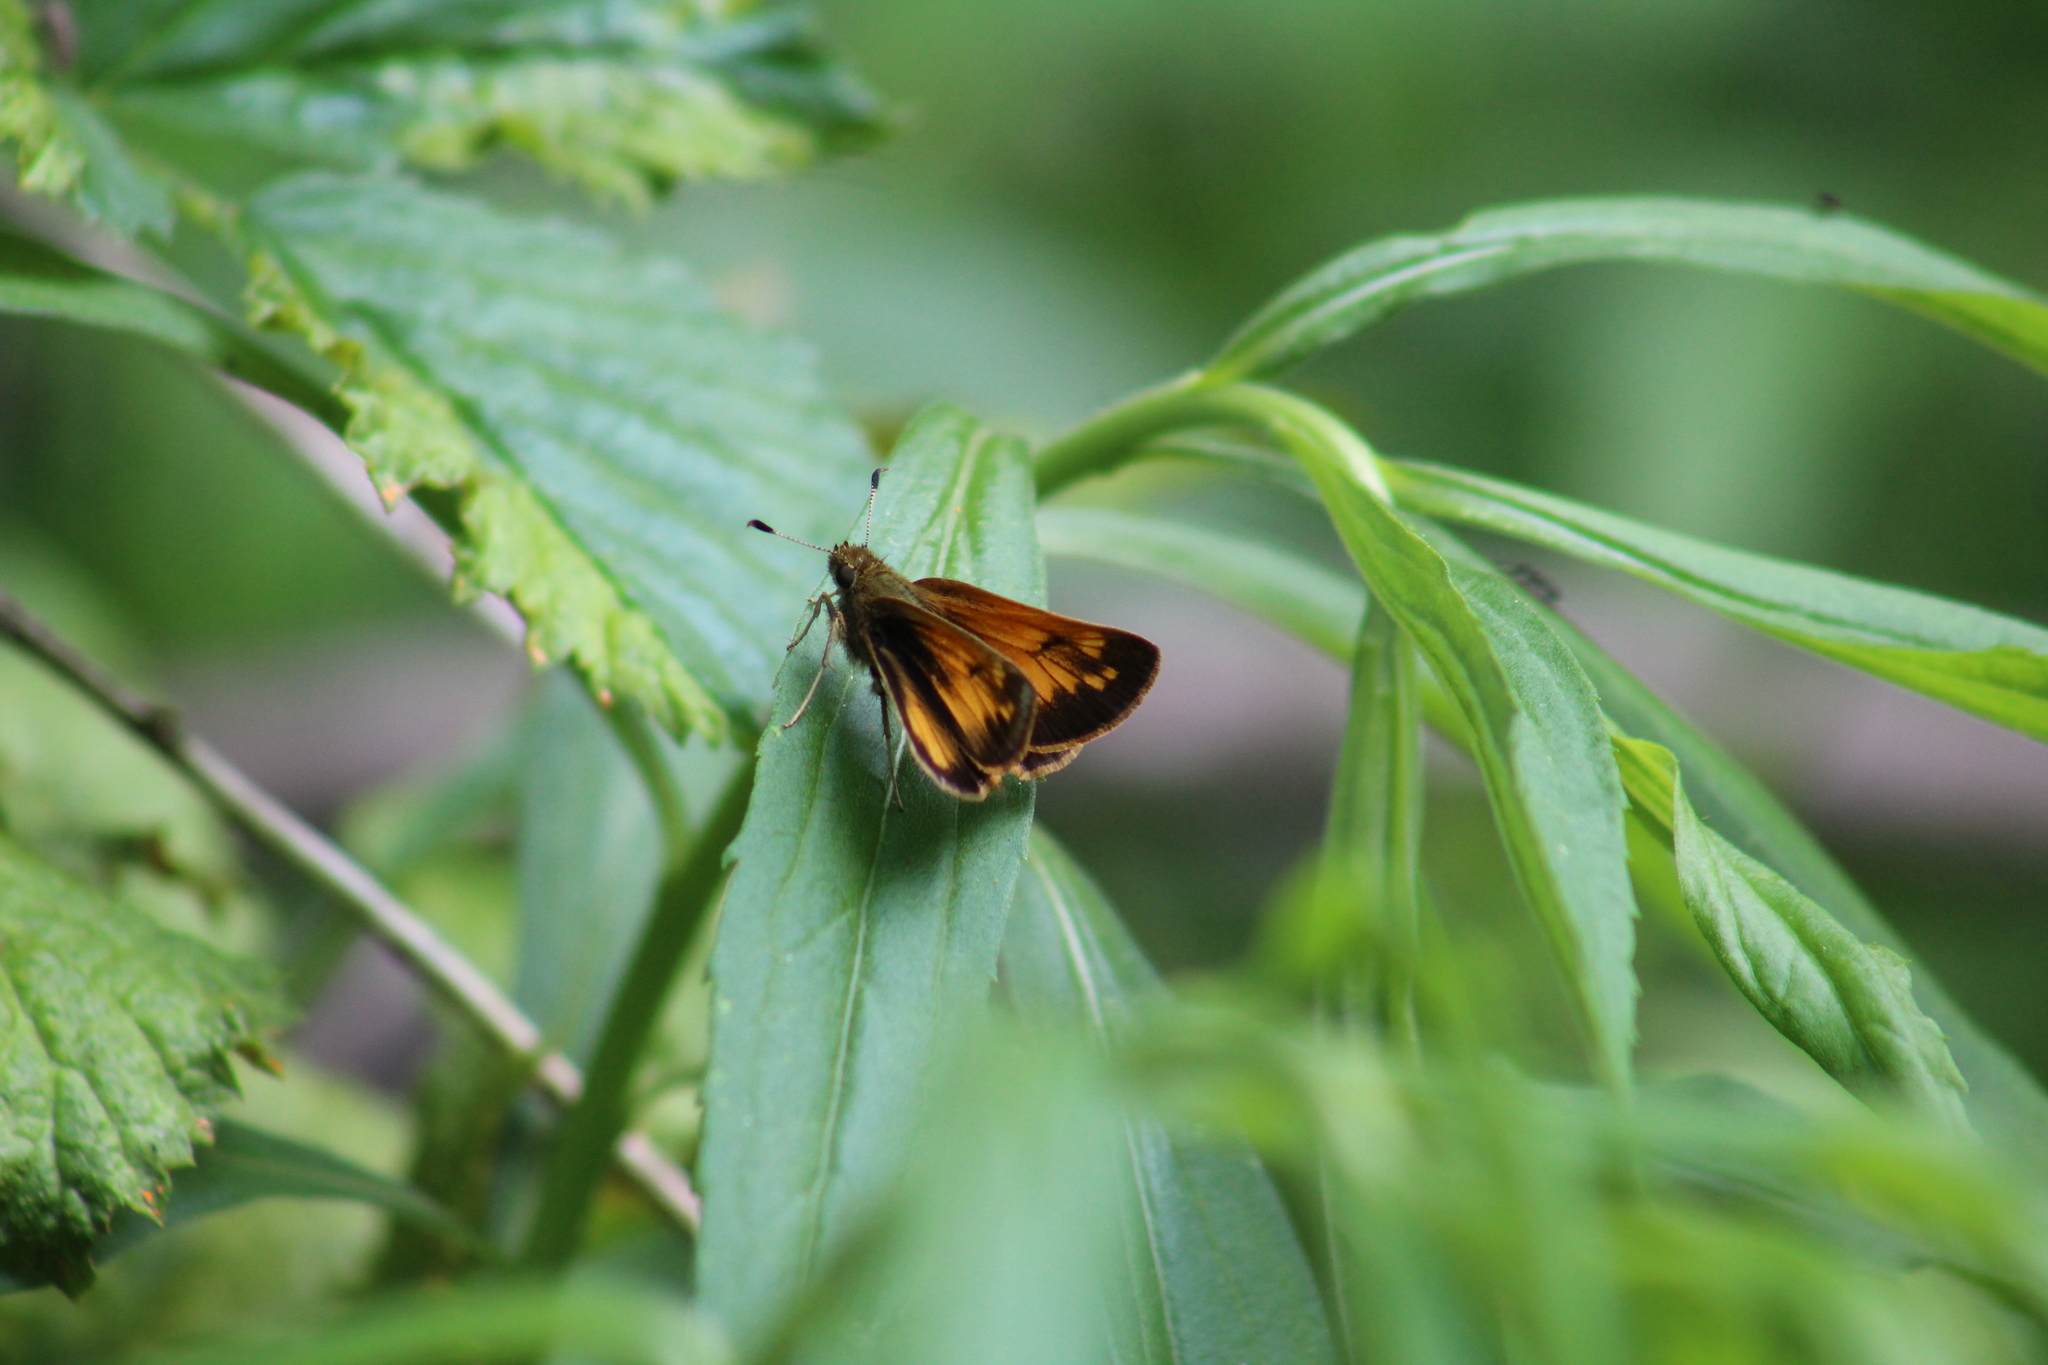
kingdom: Animalia
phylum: Arthropoda
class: Insecta
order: Lepidoptera
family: Hesperiidae
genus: Lon
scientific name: Lon hobomok
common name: Hobomok skipper
